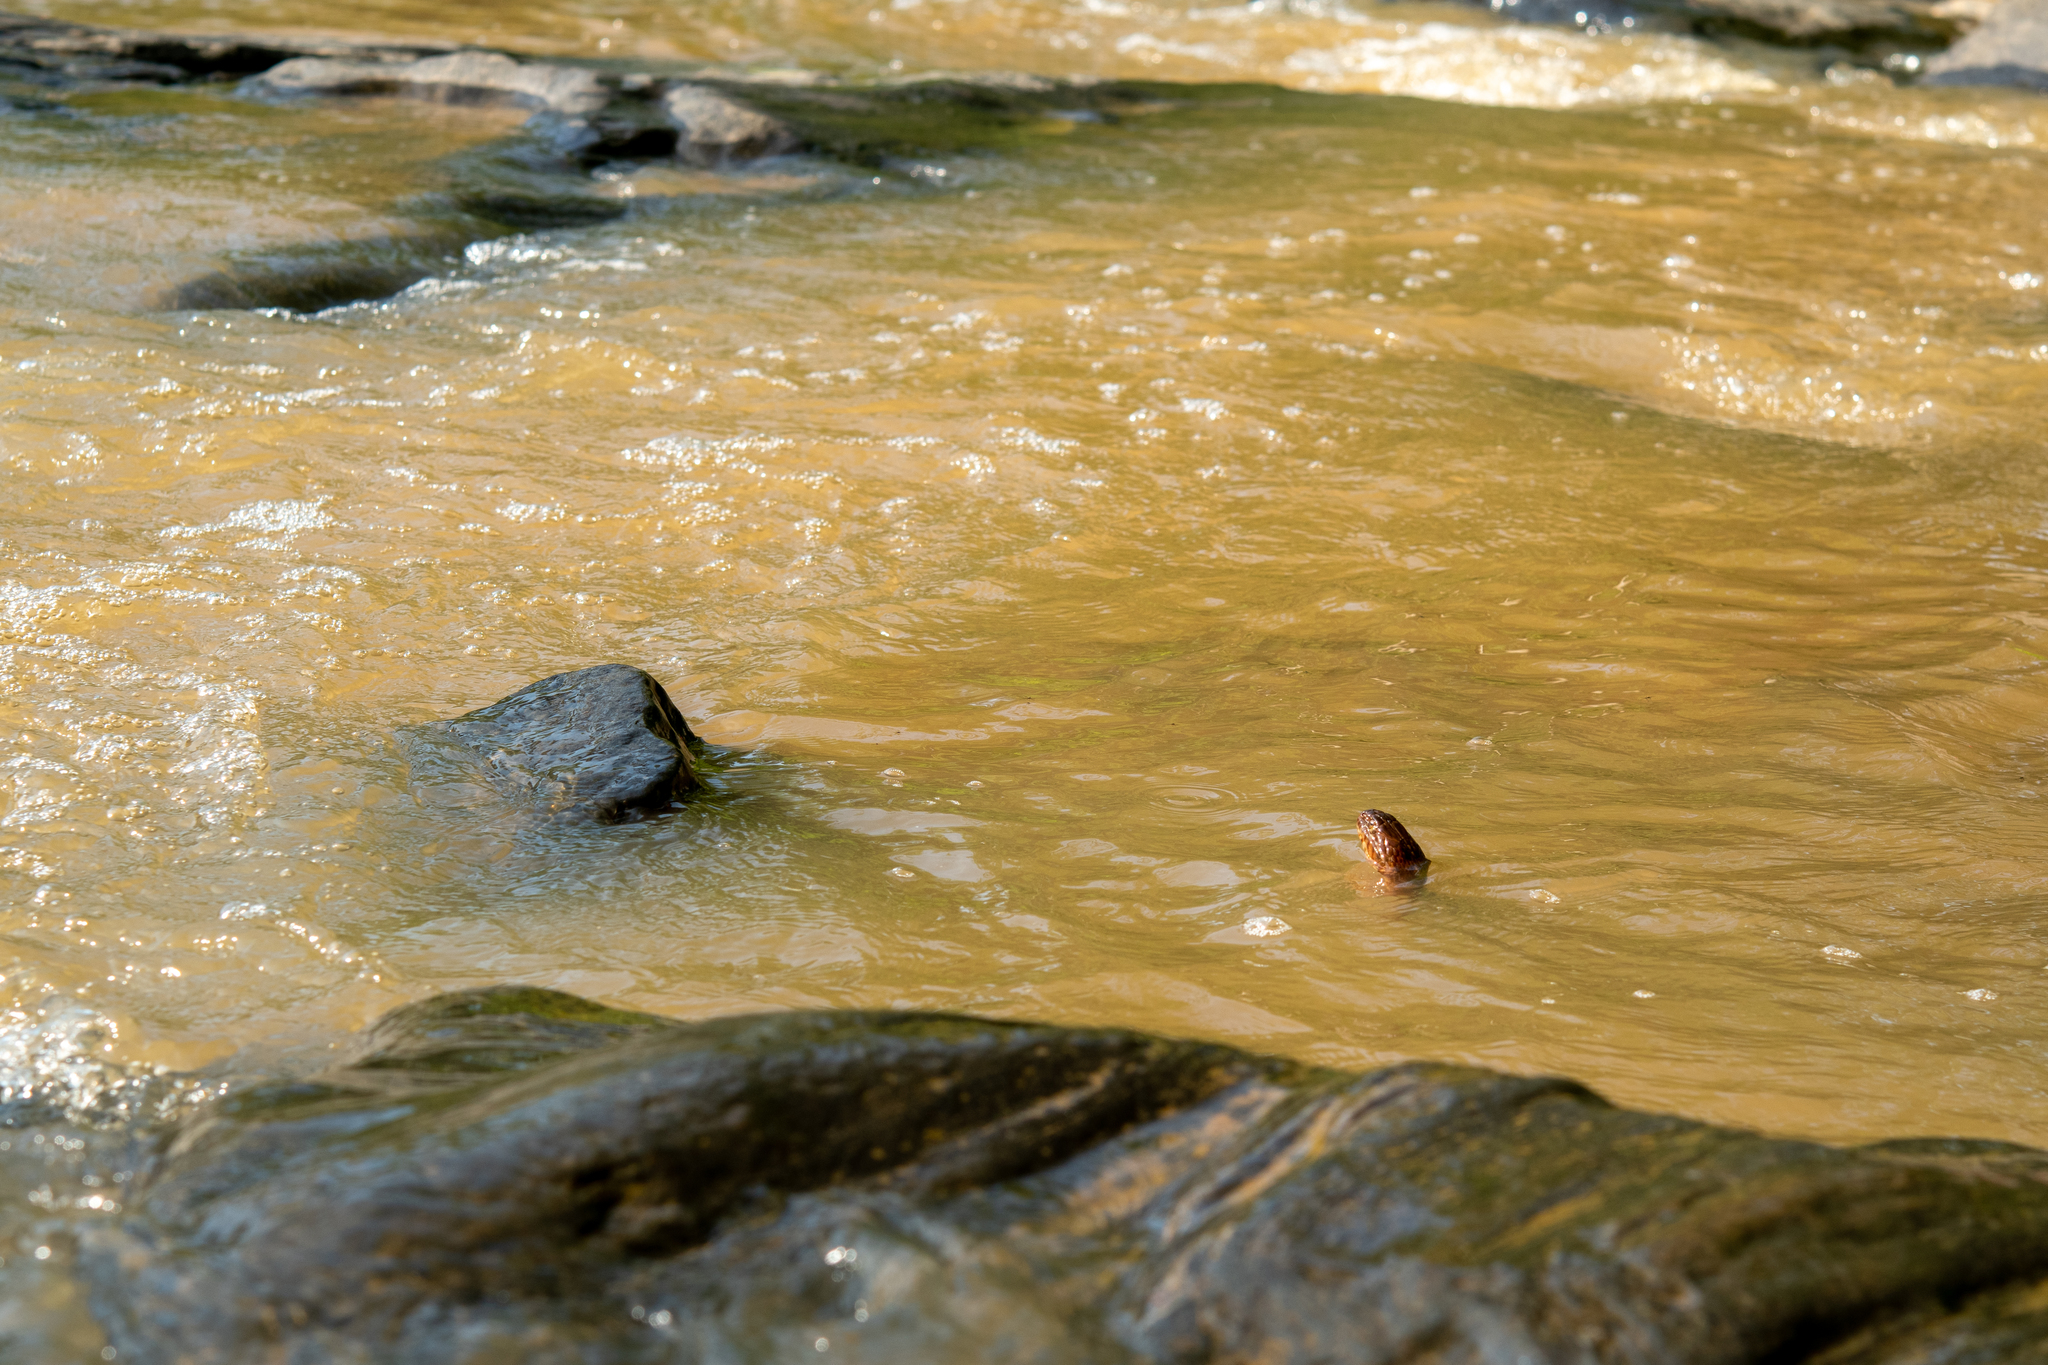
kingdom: Animalia
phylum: Chordata
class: Squamata
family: Colubridae
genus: Nerodia
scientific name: Nerodia sipedon
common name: Northern water snake
